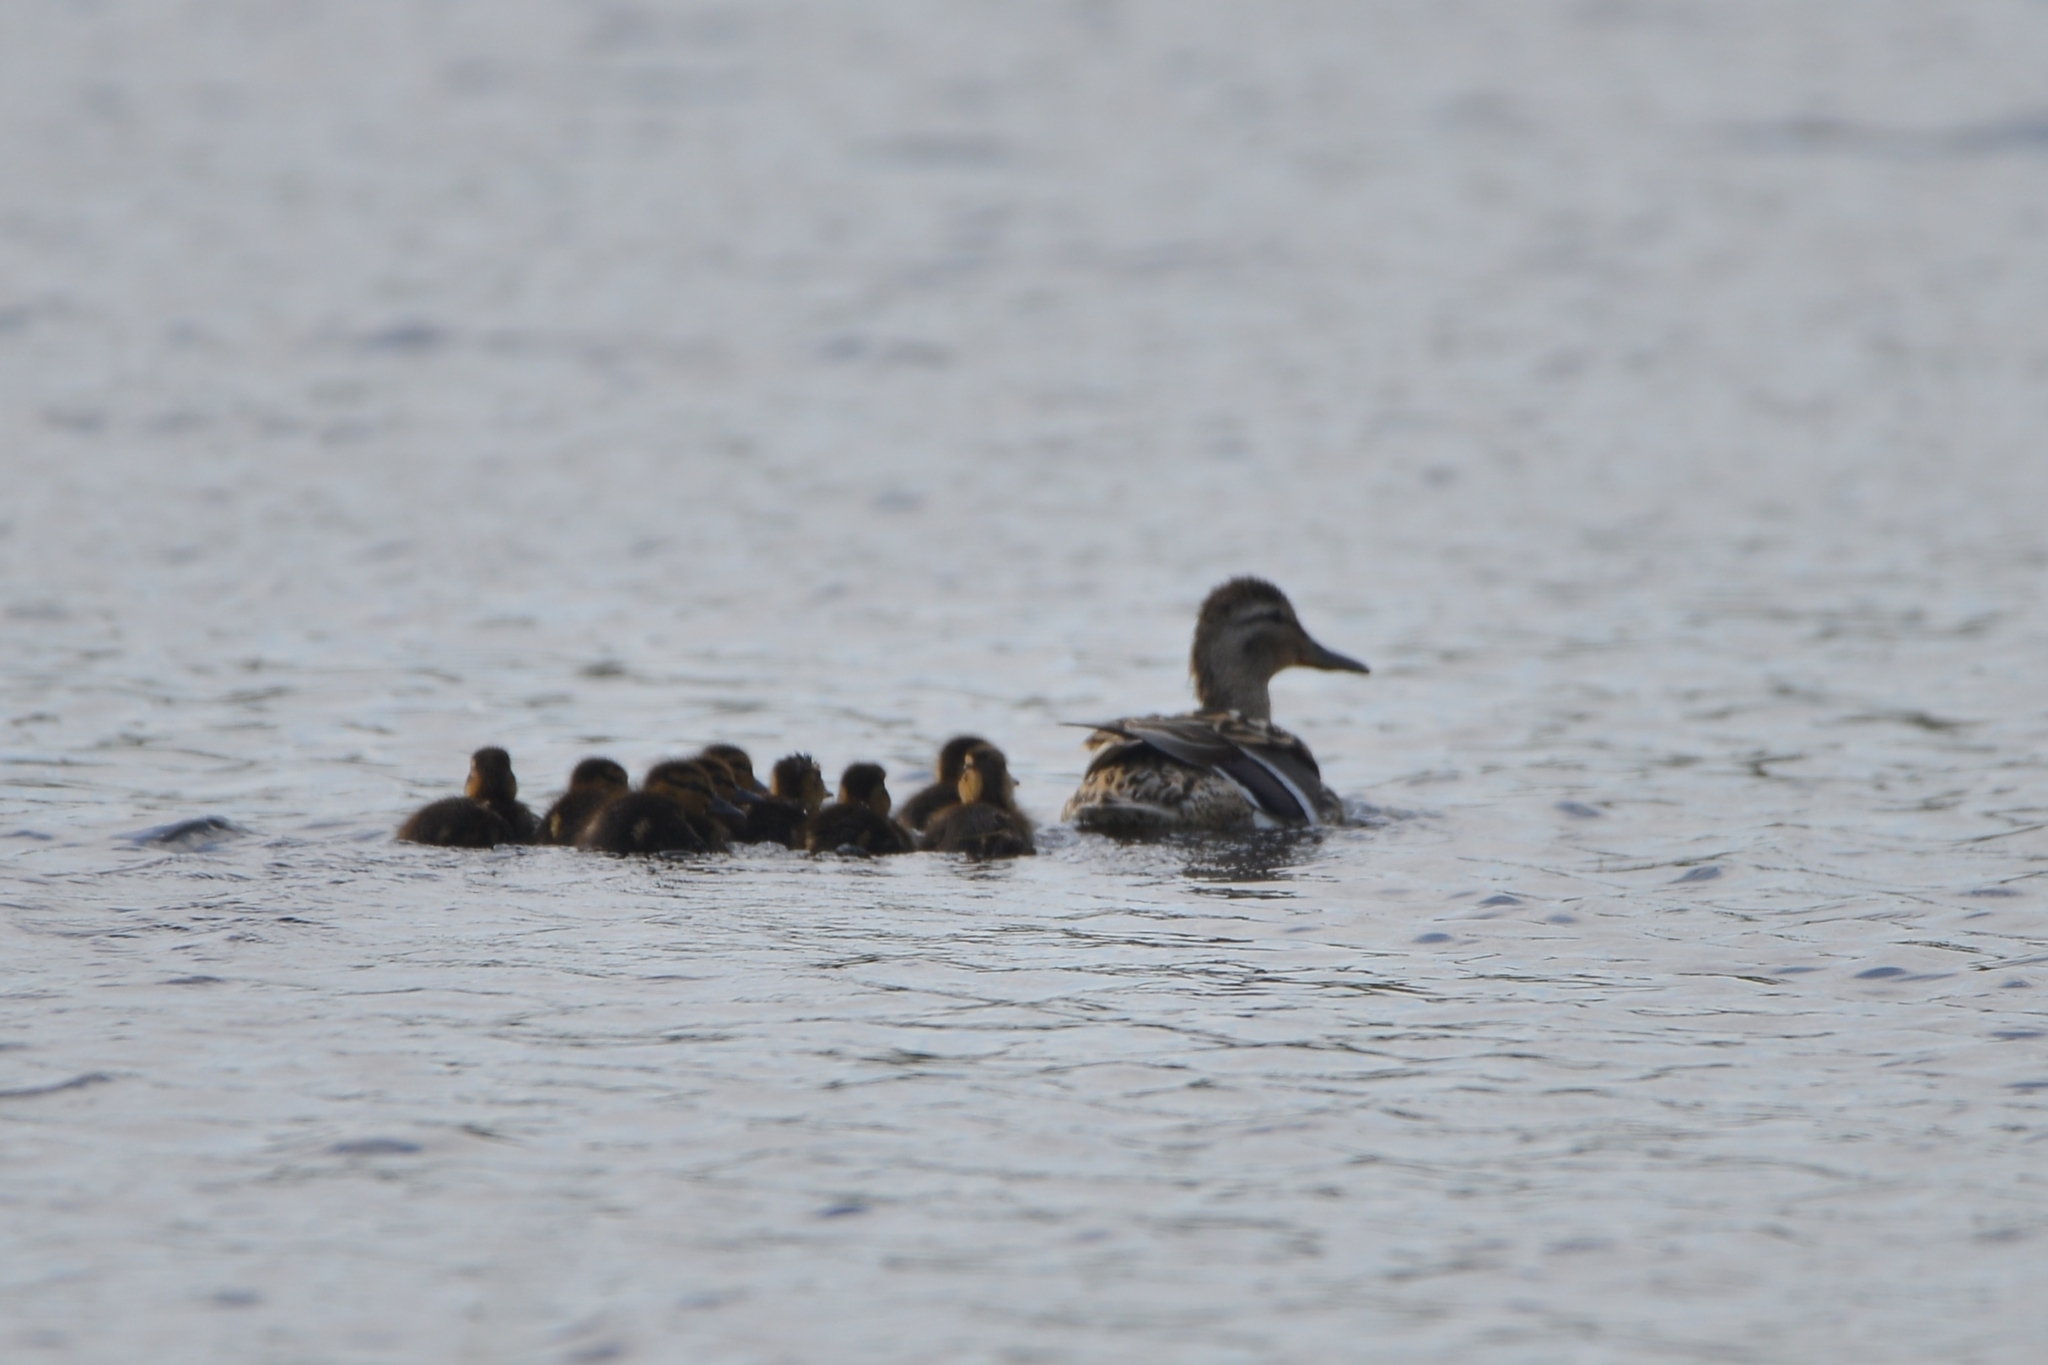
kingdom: Animalia
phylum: Chordata
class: Aves
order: Anseriformes
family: Anatidae
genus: Anas
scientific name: Anas platyrhynchos
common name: Mallard
